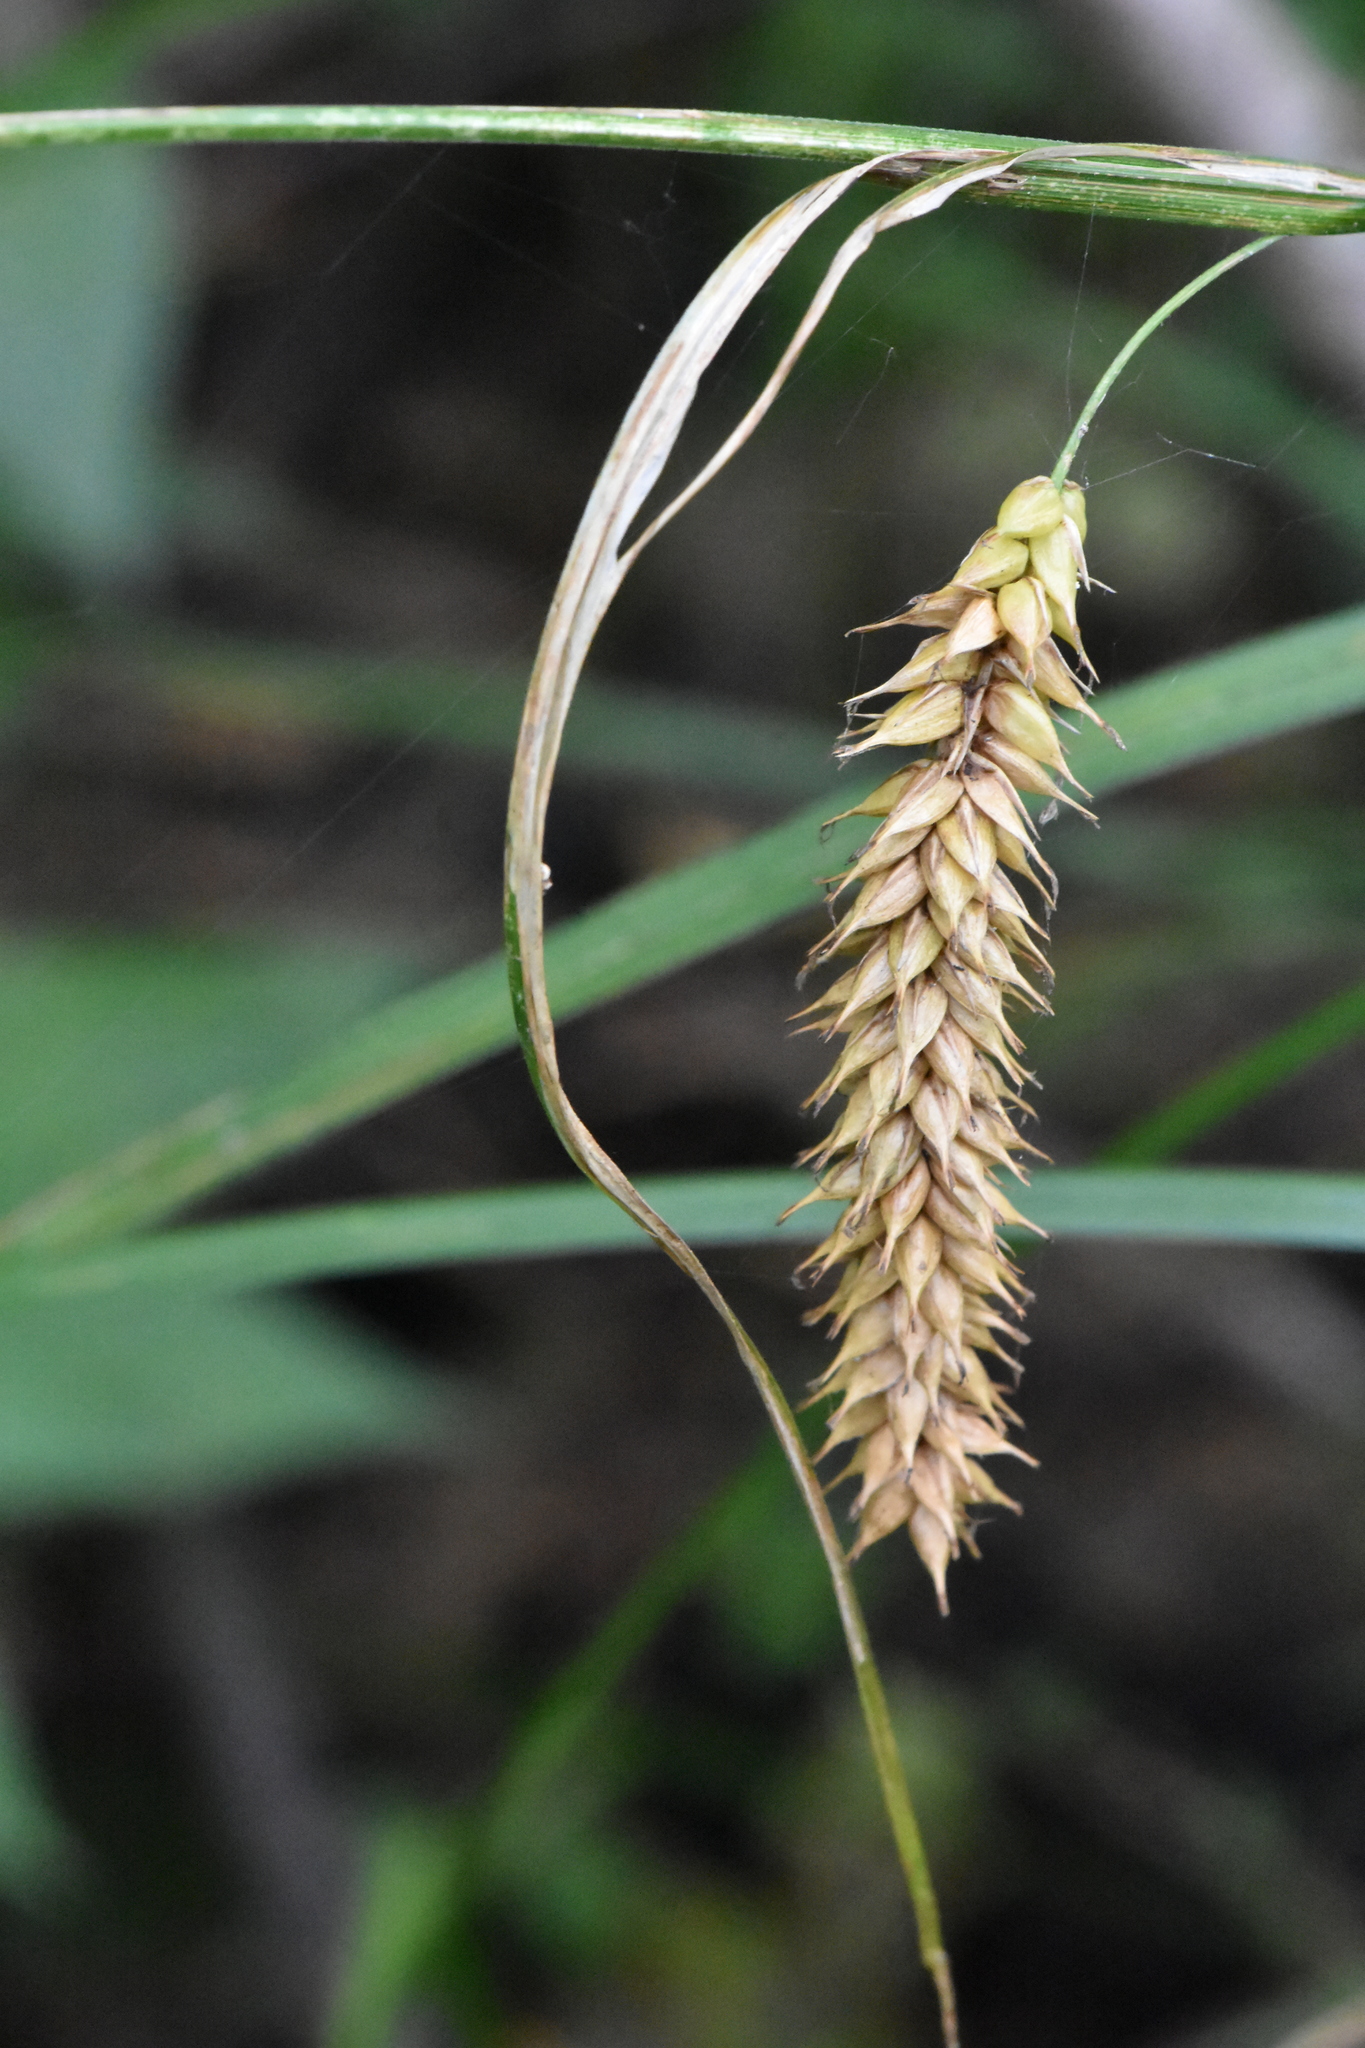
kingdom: Plantae
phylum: Tracheophyta
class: Liliopsida
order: Poales
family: Cyperaceae
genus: Carex
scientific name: Carex vesicaria
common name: Bladder-sedge
